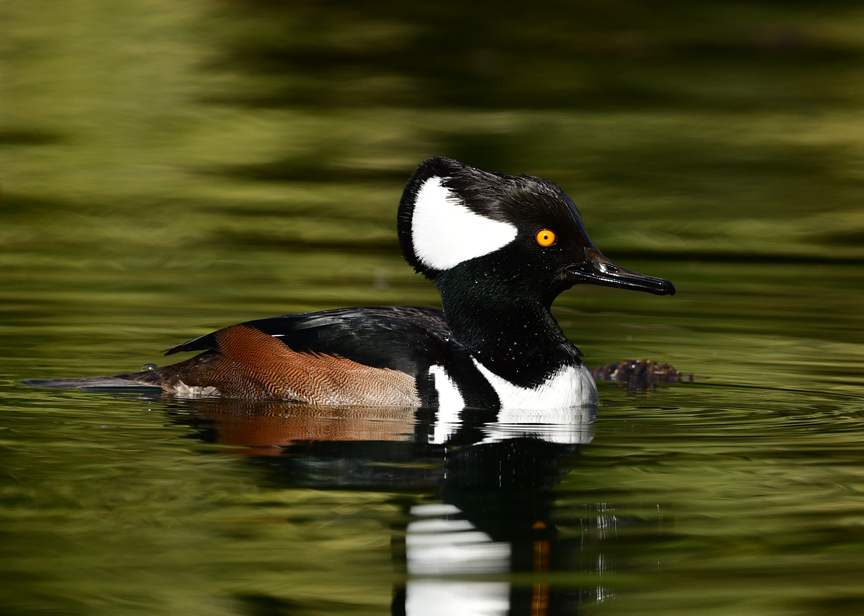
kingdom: Animalia
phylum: Chordata
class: Aves
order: Anseriformes
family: Anatidae
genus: Lophodytes
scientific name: Lophodytes cucullatus
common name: Hooded merganser
